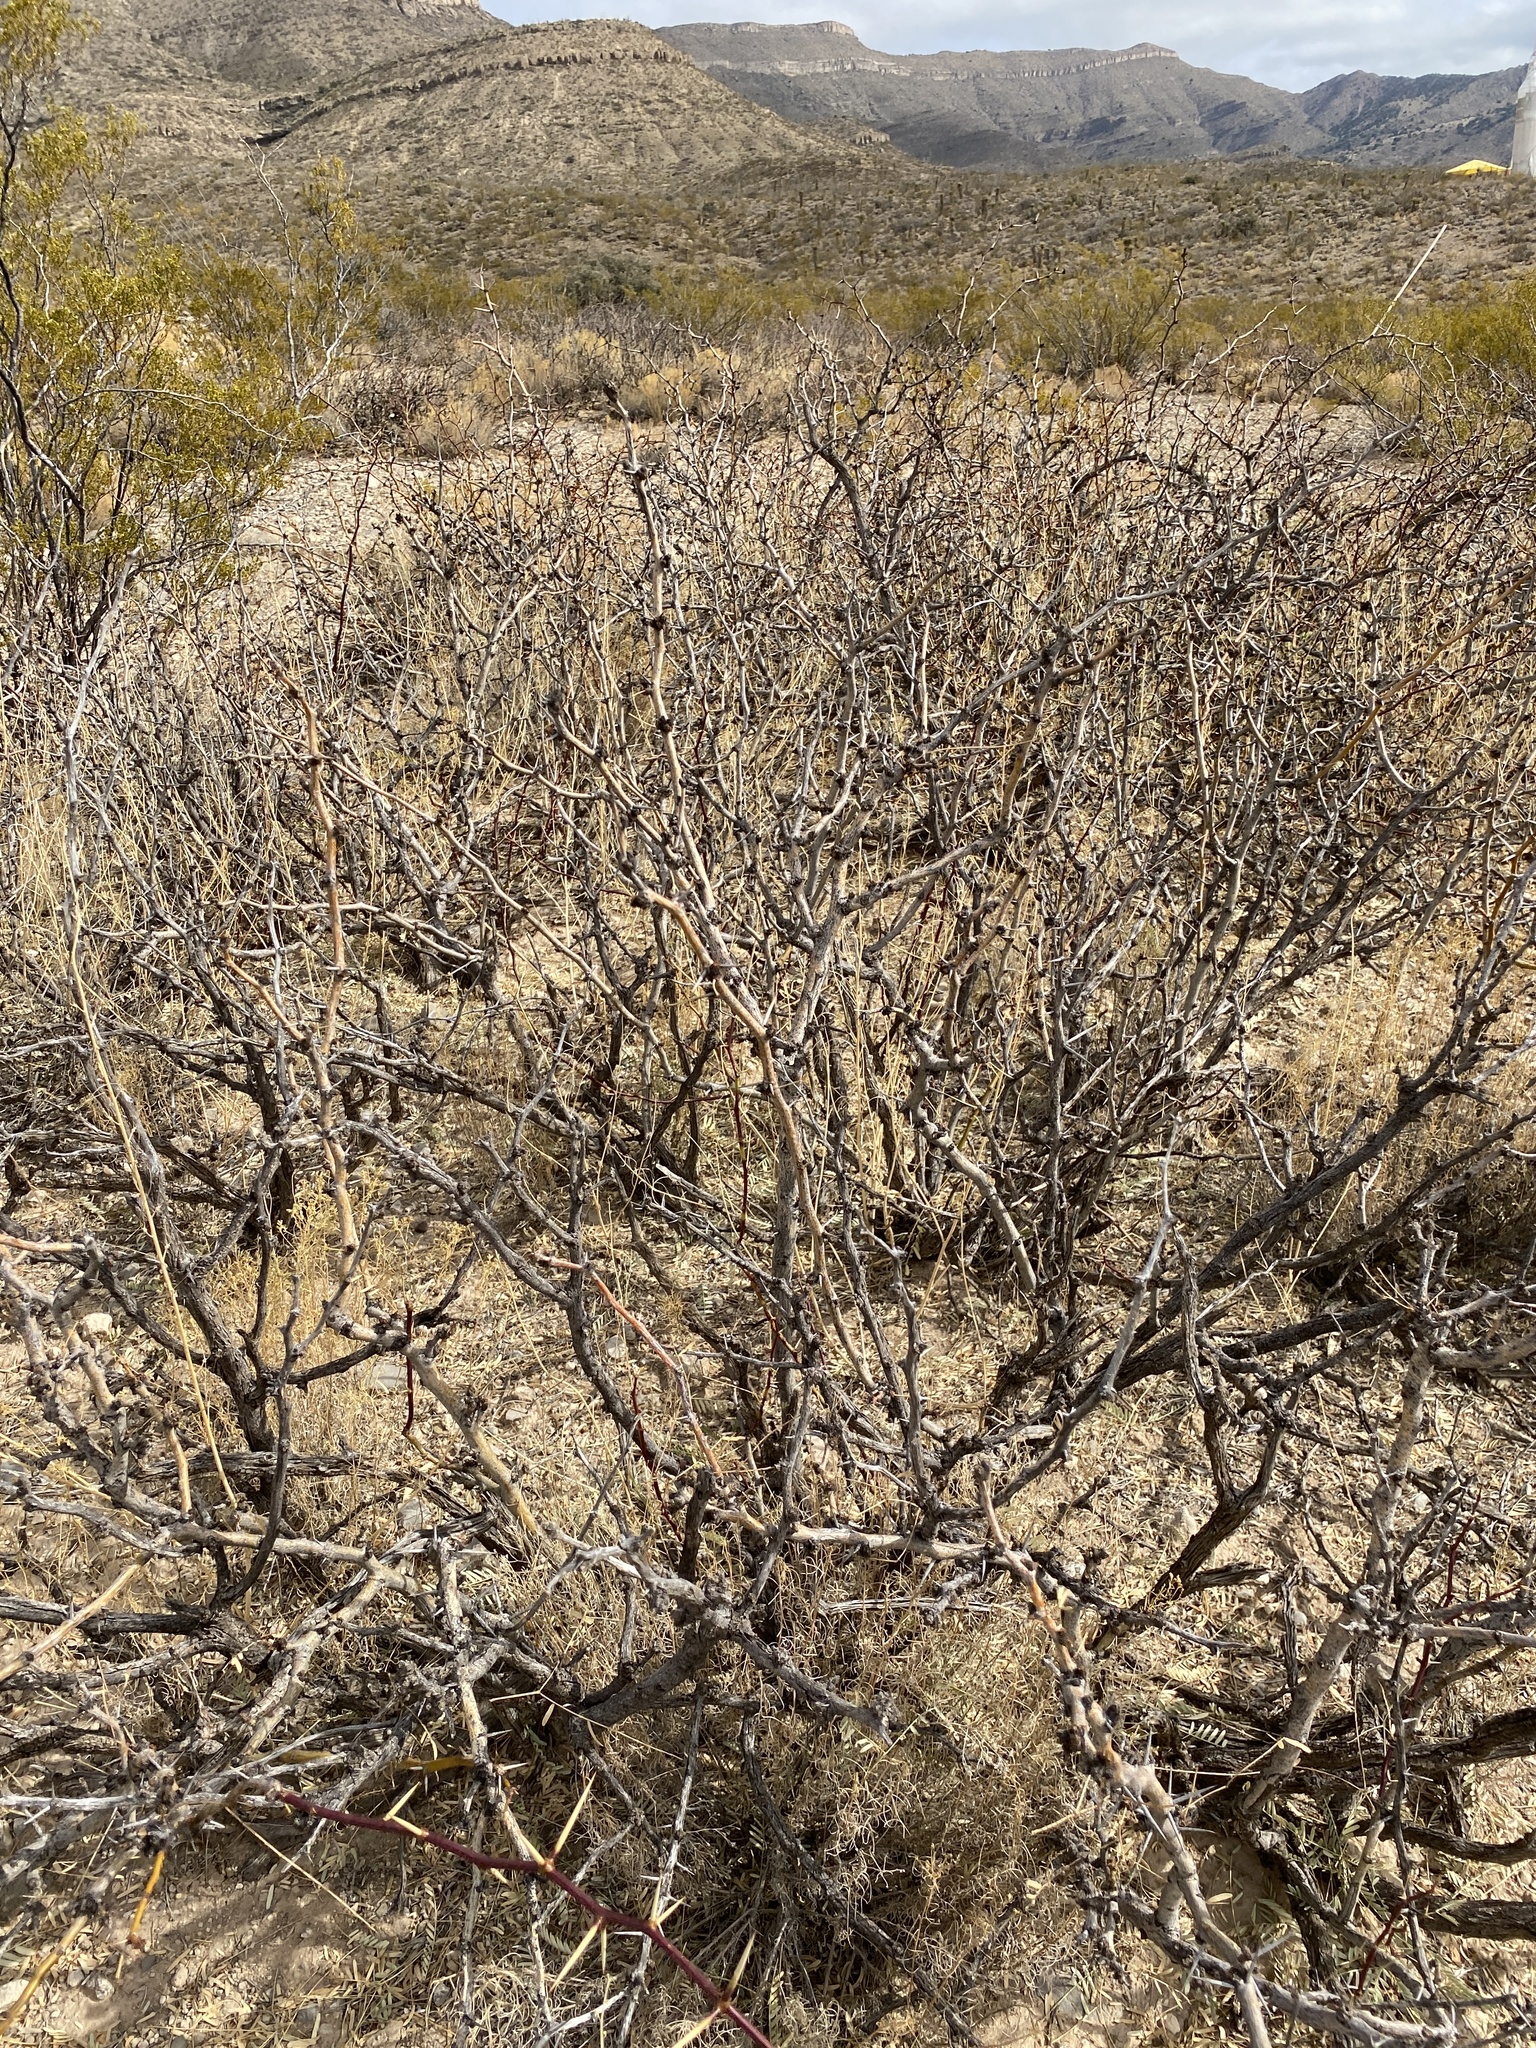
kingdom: Plantae
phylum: Tracheophyta
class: Magnoliopsida
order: Fabales
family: Fabaceae
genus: Prosopis
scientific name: Prosopis glandulosa
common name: Honey mesquite
